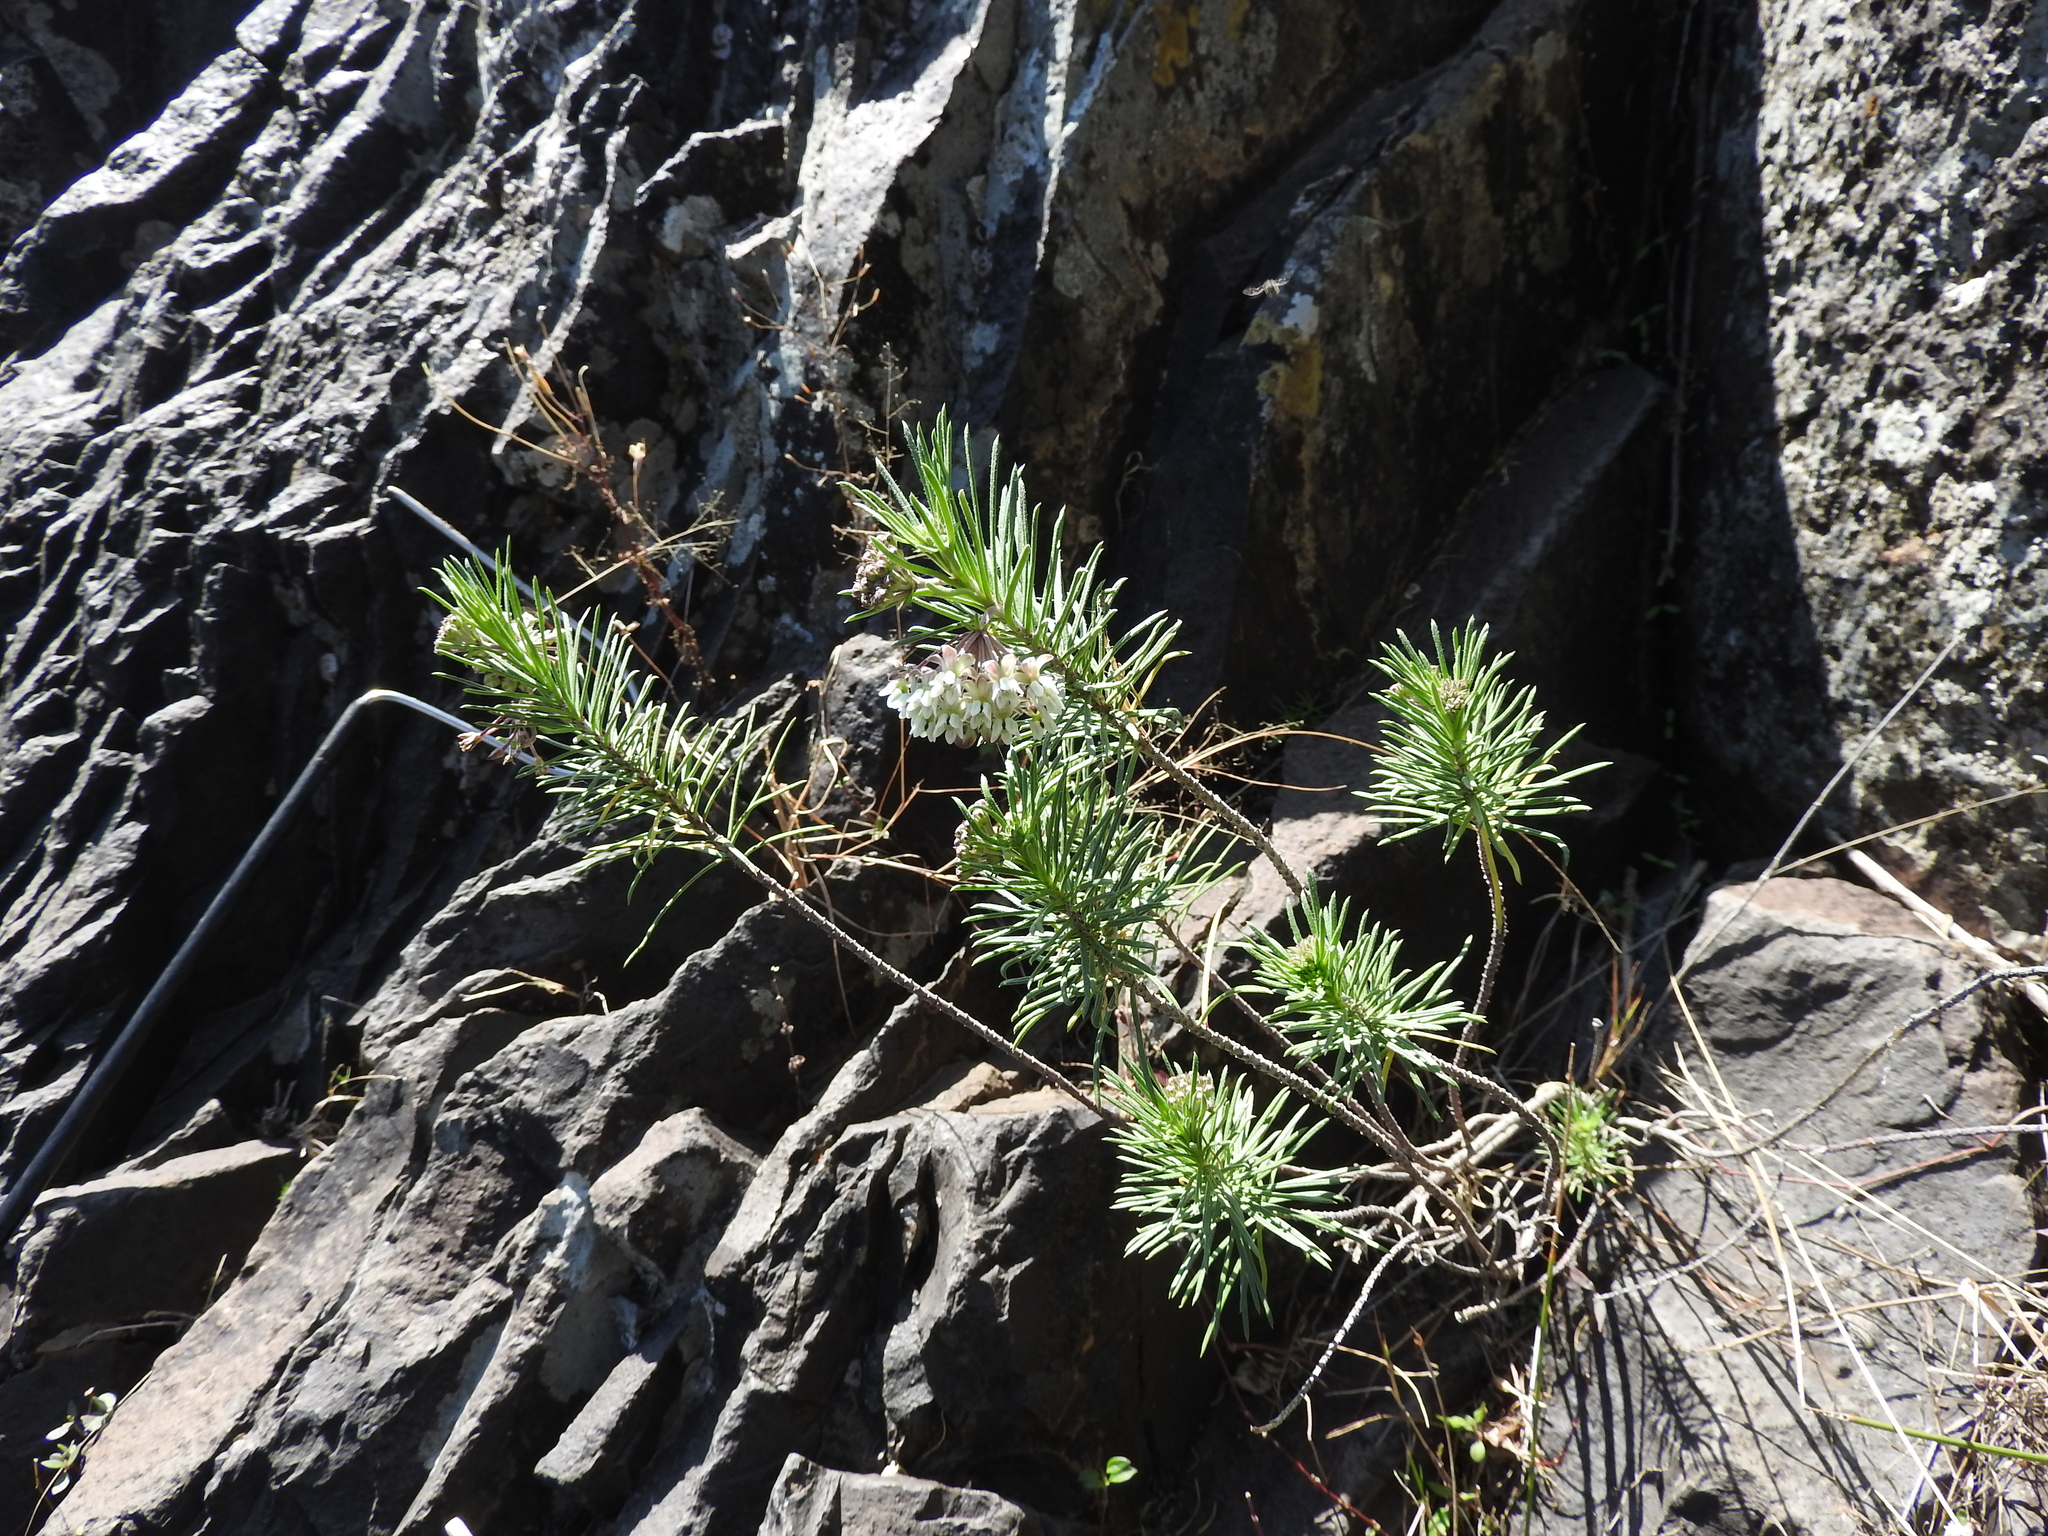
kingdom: Plantae
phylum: Tracheophyta
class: Magnoliopsida
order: Gentianales
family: Apocynaceae
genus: Asclepias
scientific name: Asclepias linaria
